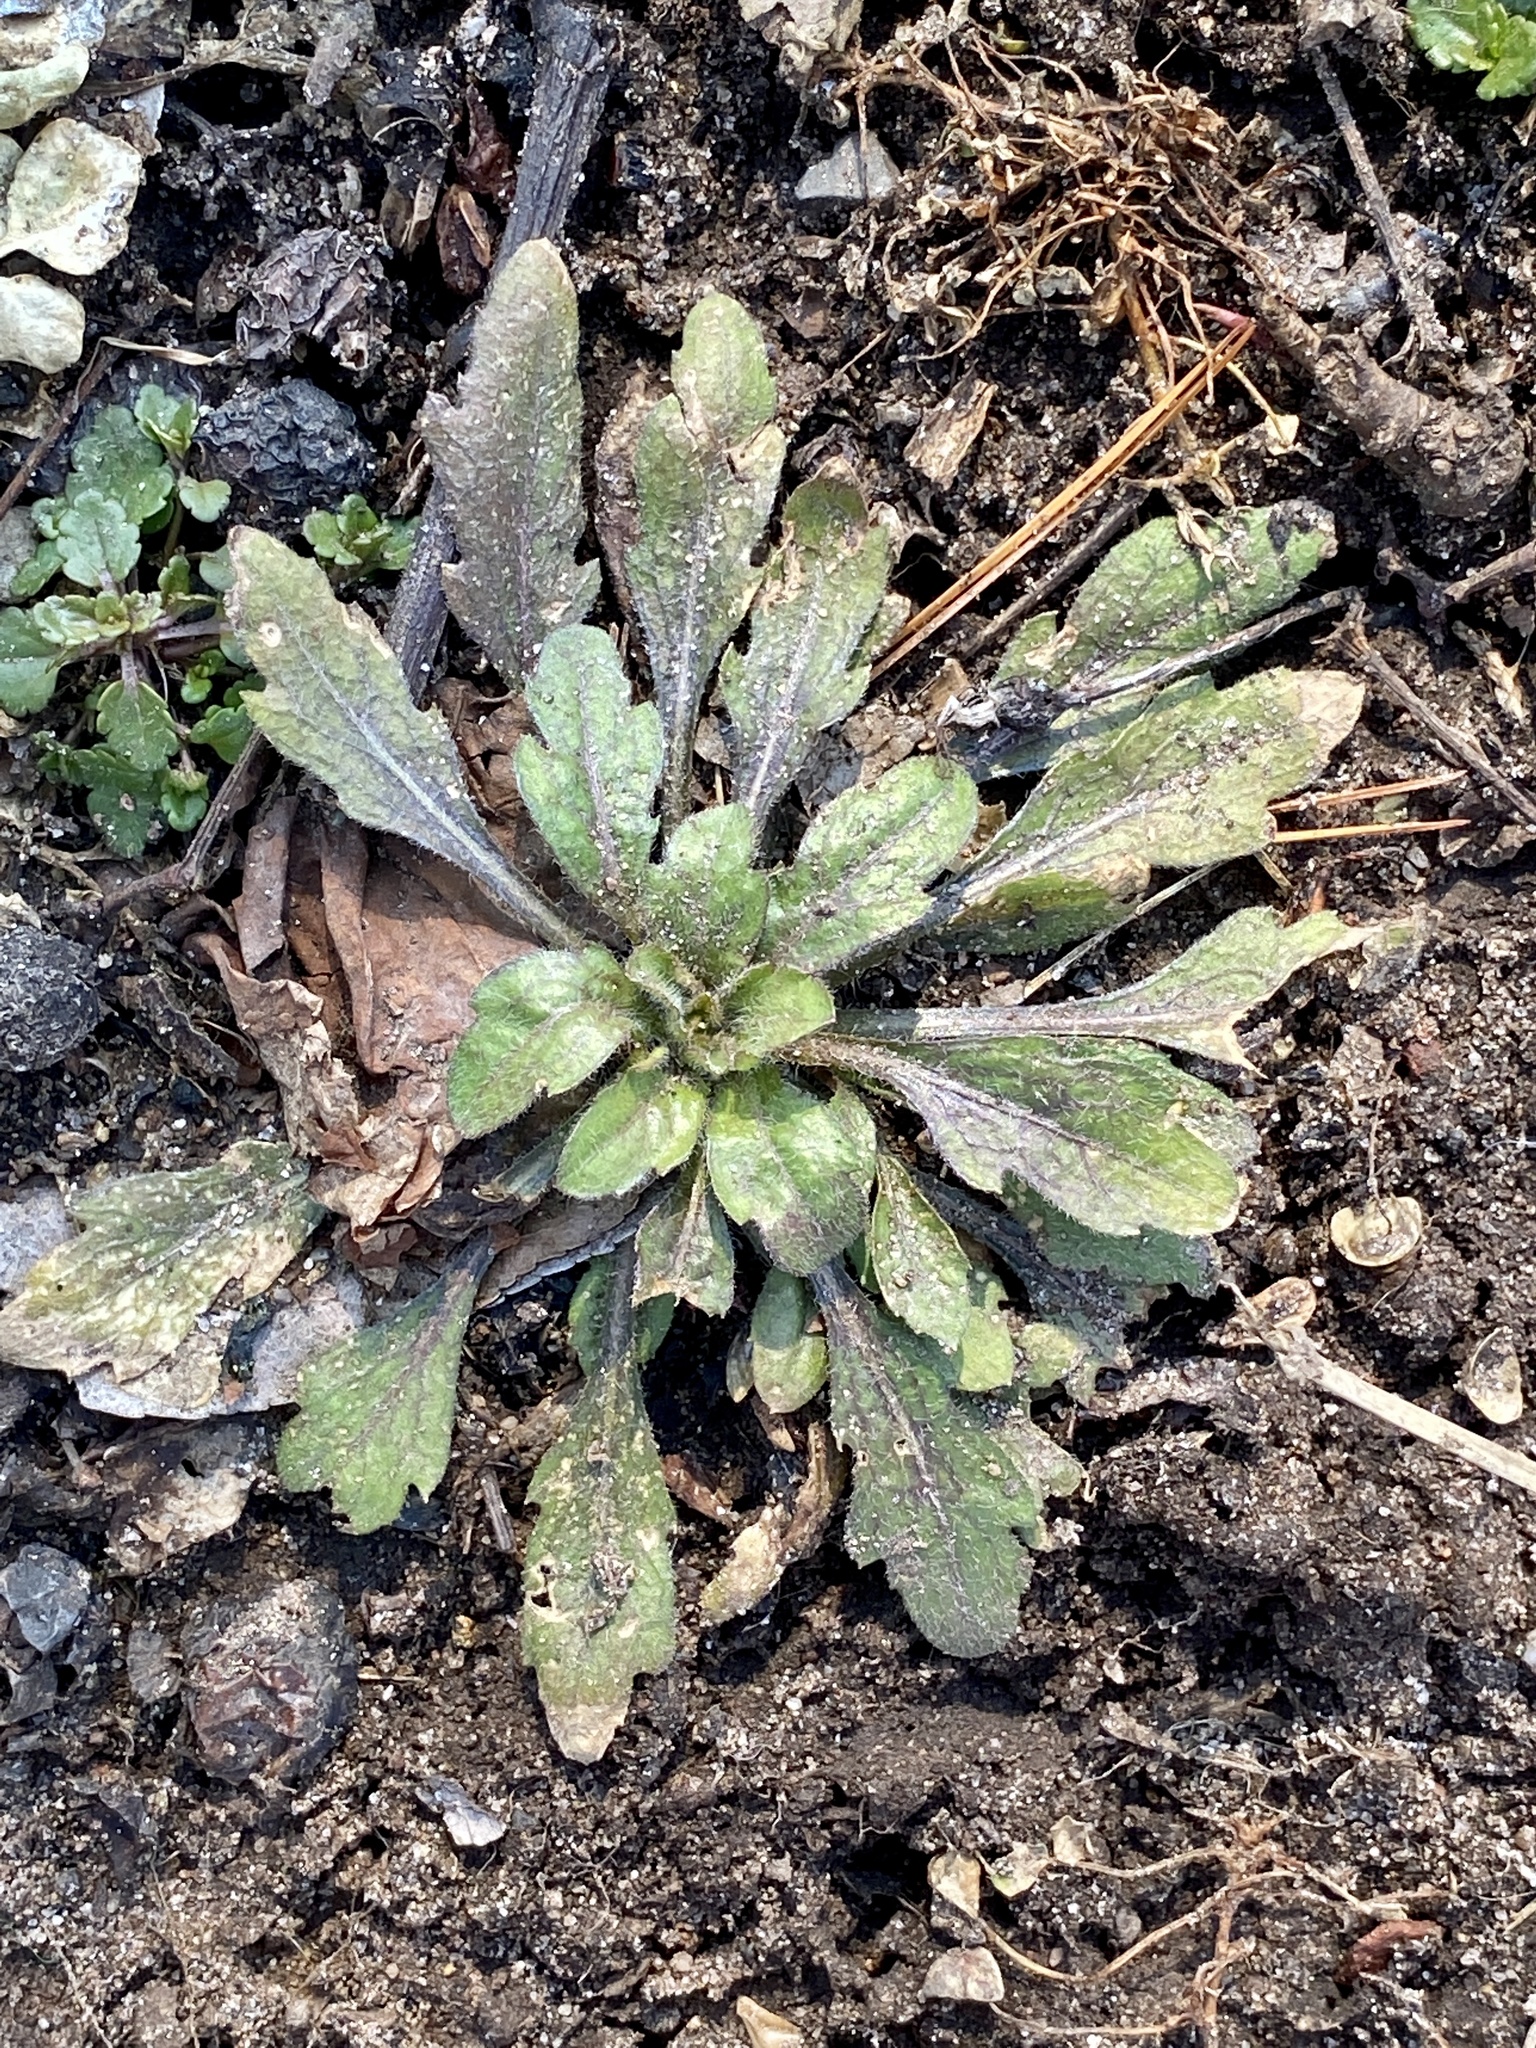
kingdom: Plantae
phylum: Tracheophyta
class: Magnoliopsida
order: Asterales
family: Asteraceae
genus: Erigeron
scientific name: Erigeron canadensis
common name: Canadian fleabane
